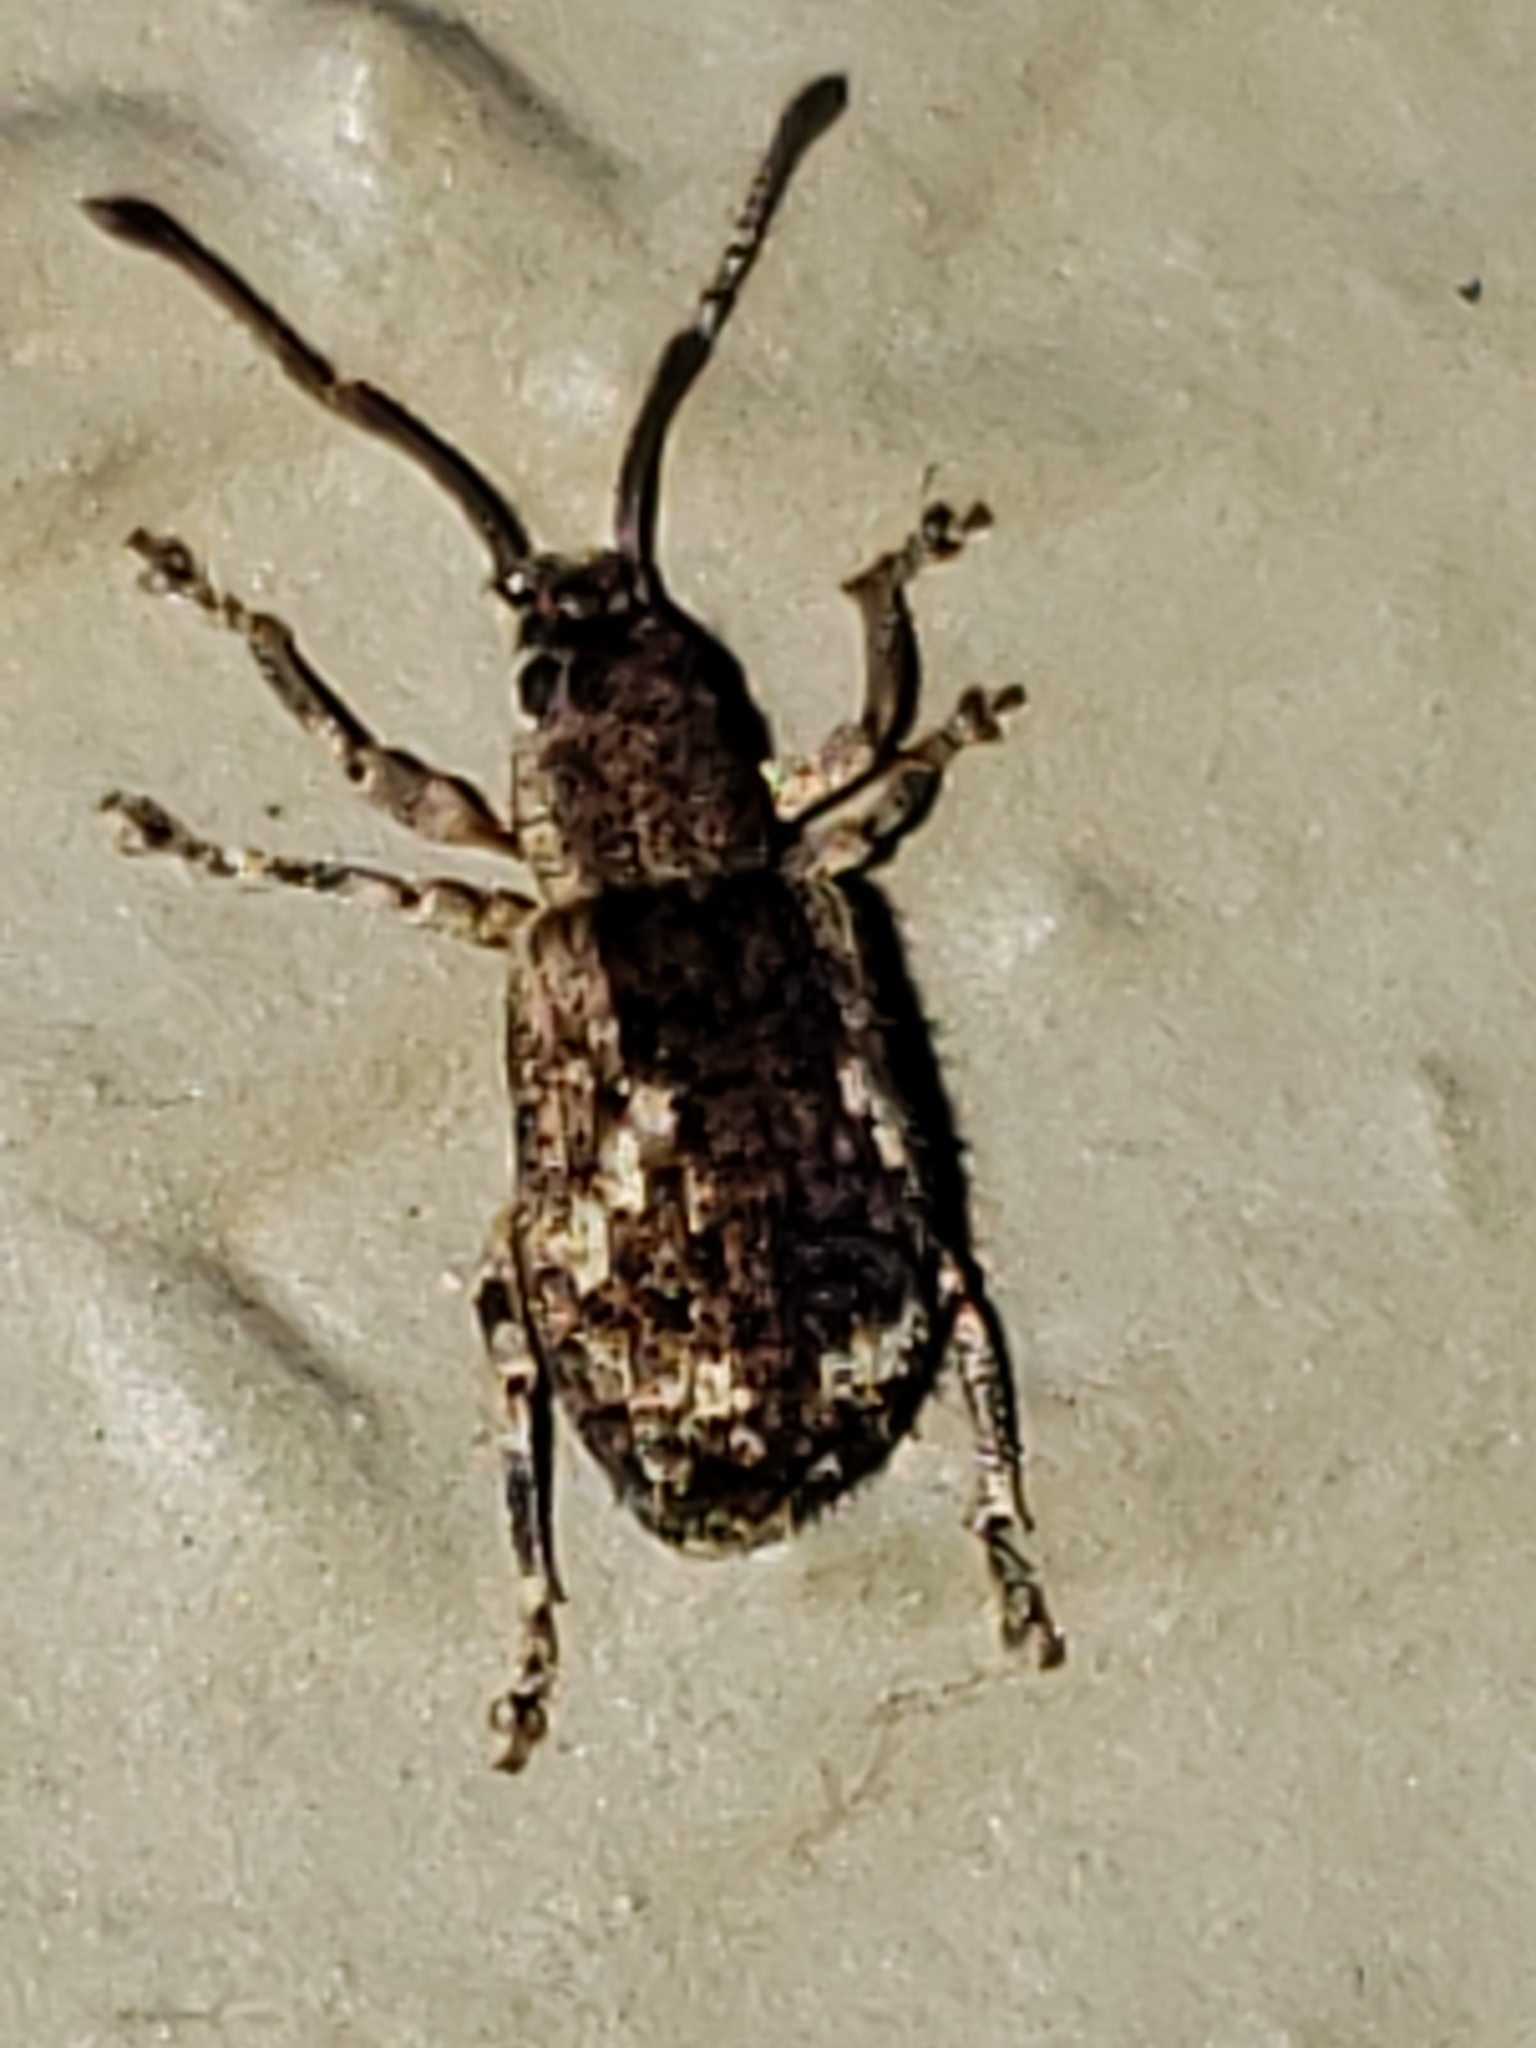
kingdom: Animalia
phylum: Arthropoda
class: Insecta
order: Coleoptera
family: Curculionidae
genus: Pseudoedophrys
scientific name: Pseudoedophrys hilleri
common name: Weevil
